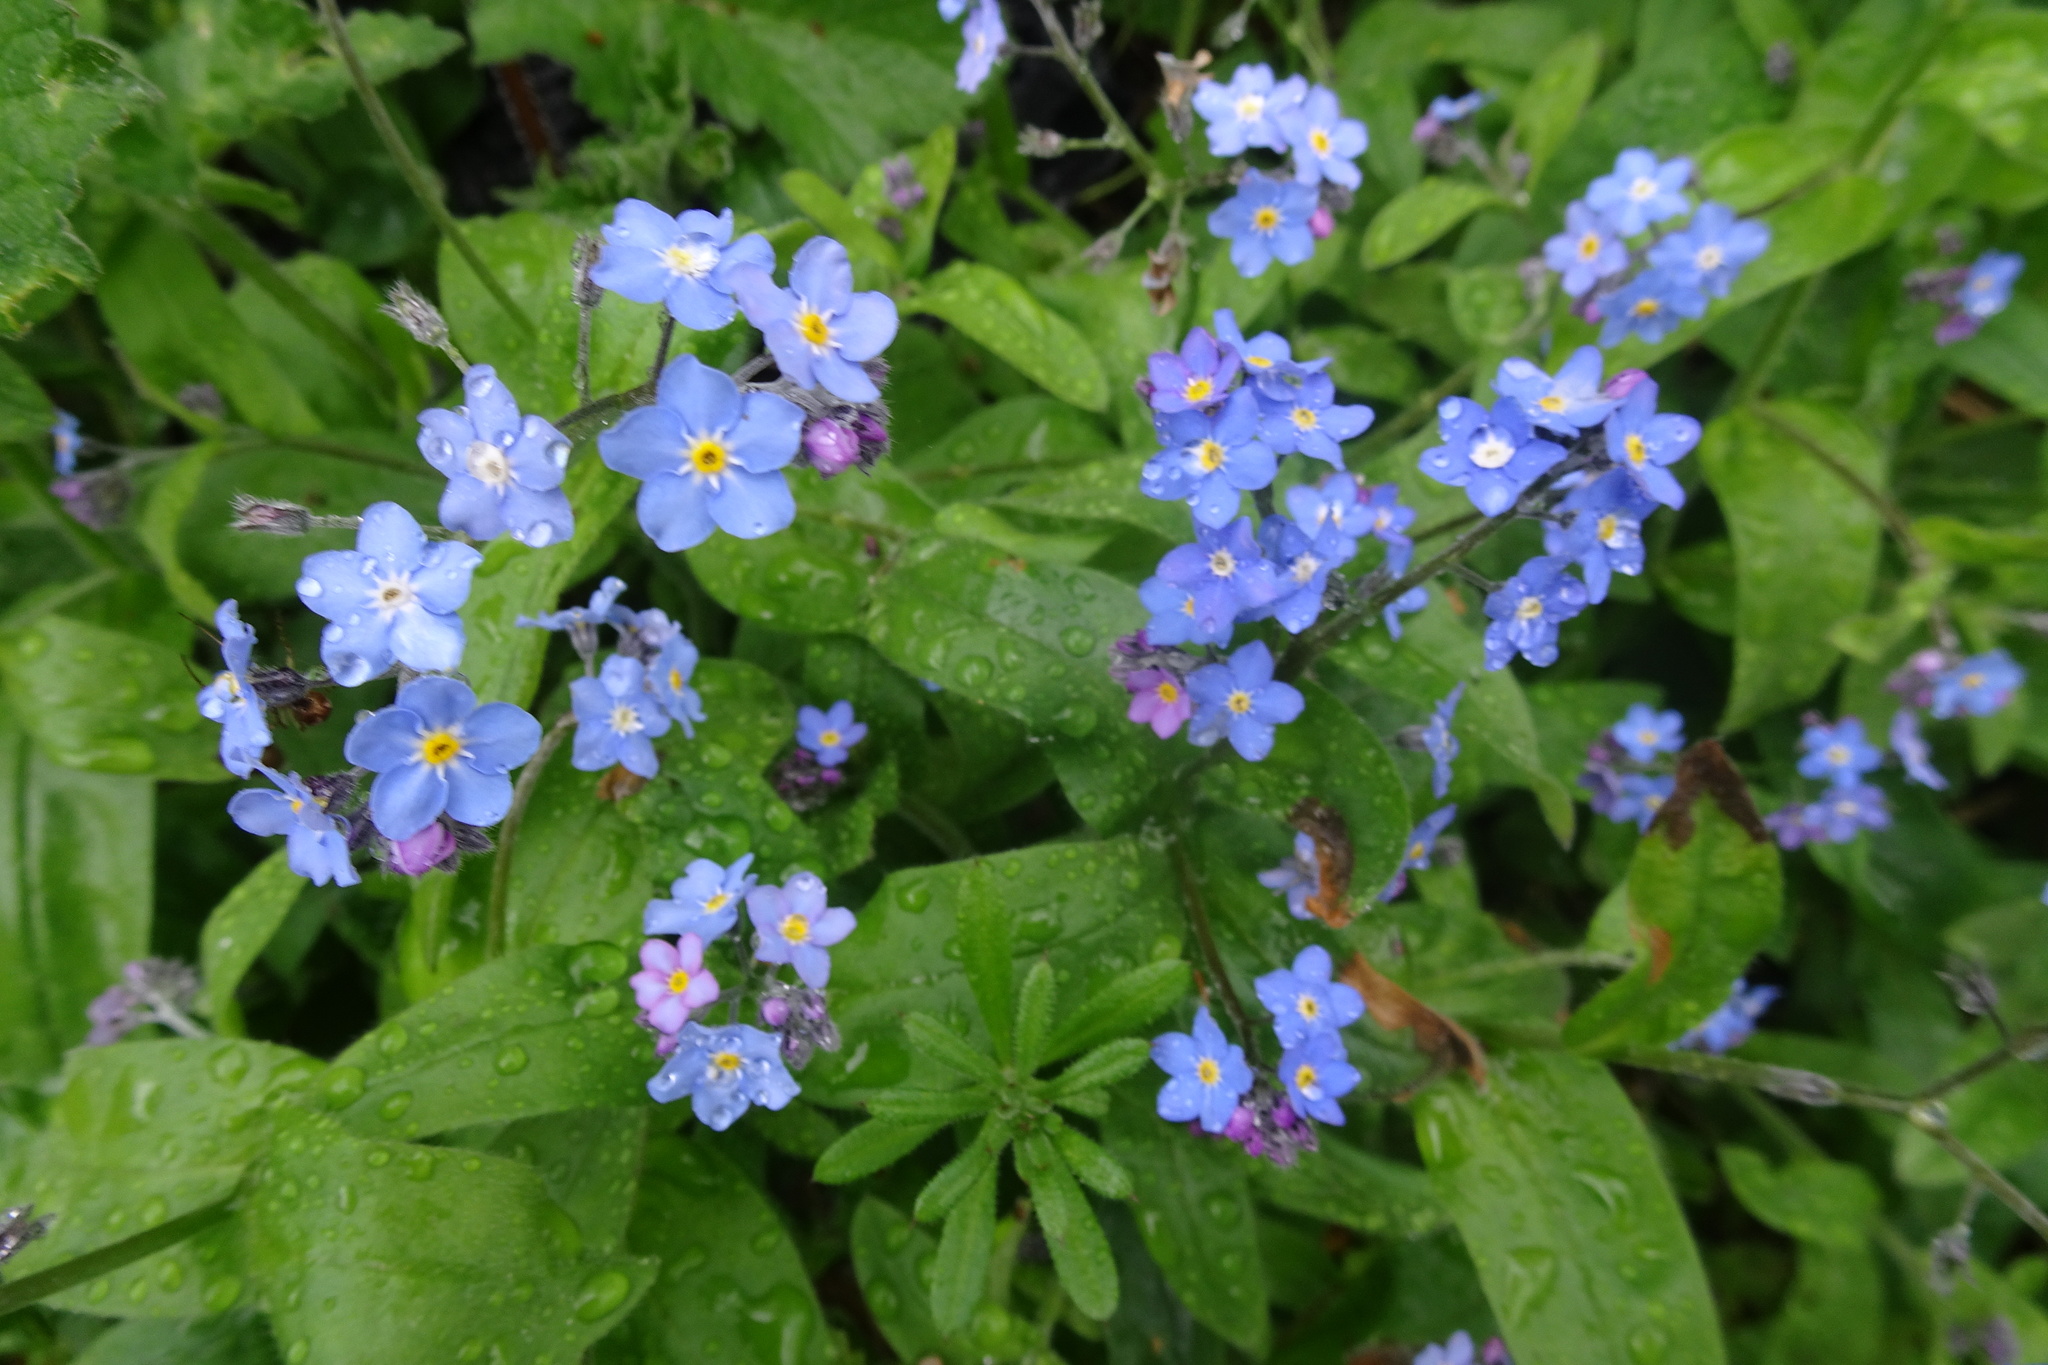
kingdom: Plantae
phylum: Tracheophyta
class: Magnoliopsida
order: Boraginales
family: Boraginaceae
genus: Myosotis
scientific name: Myosotis sylvatica
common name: Wood forget-me-not
